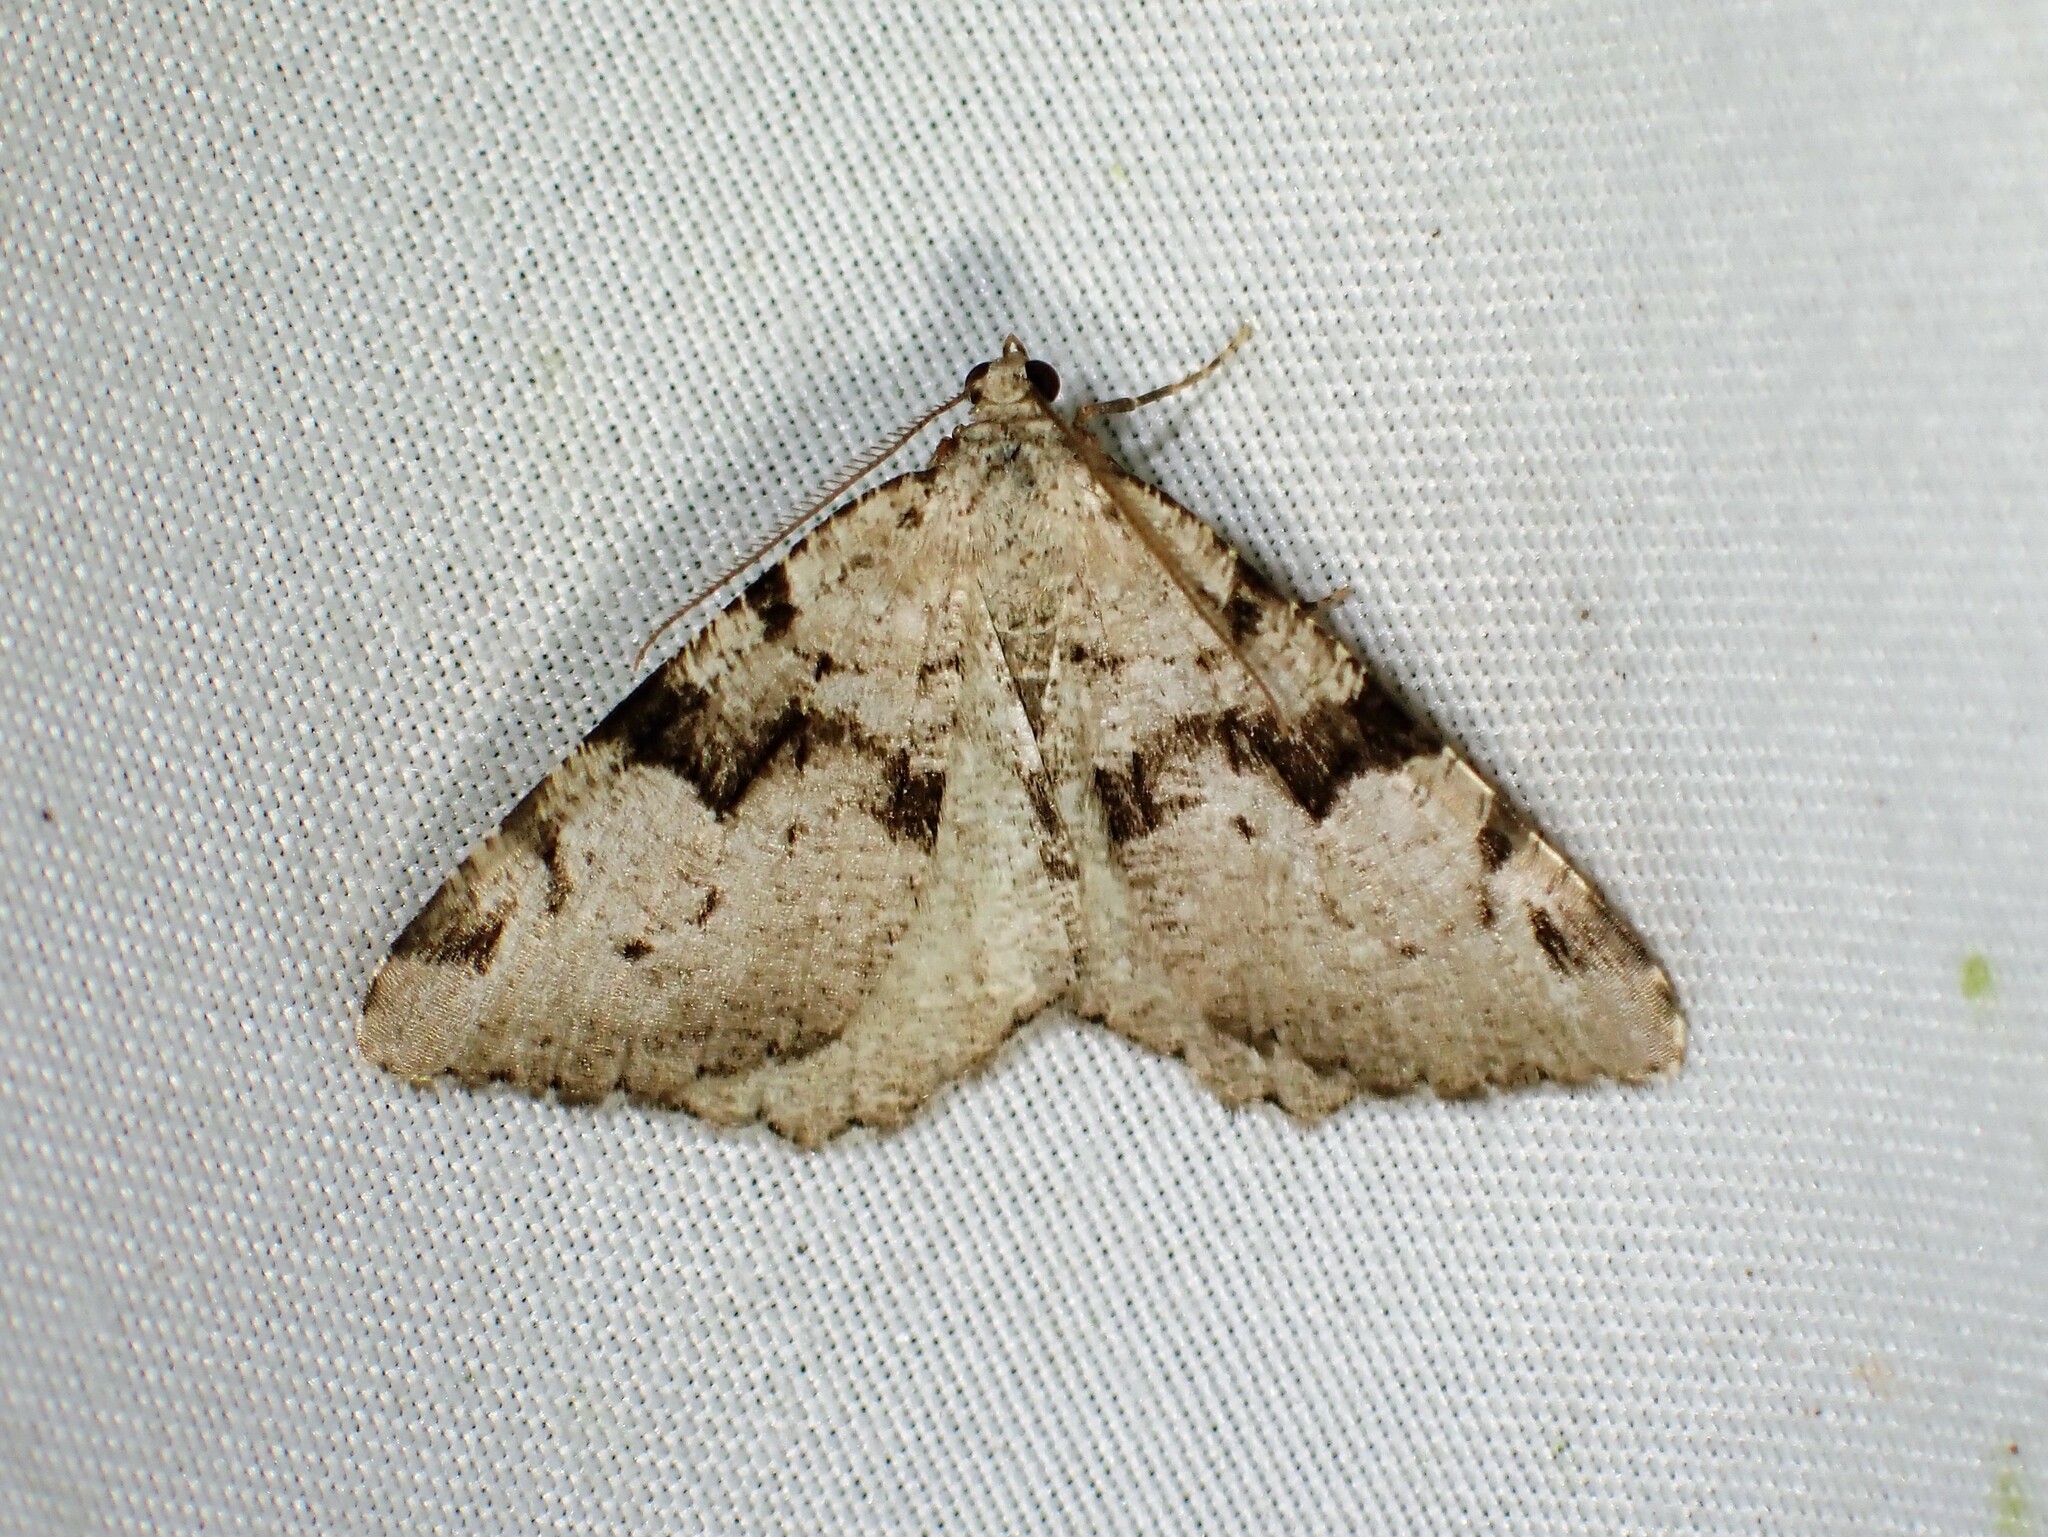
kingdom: Animalia
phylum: Arthropoda
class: Insecta
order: Lepidoptera
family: Geometridae
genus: Macaria
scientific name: Macaria bitactata
